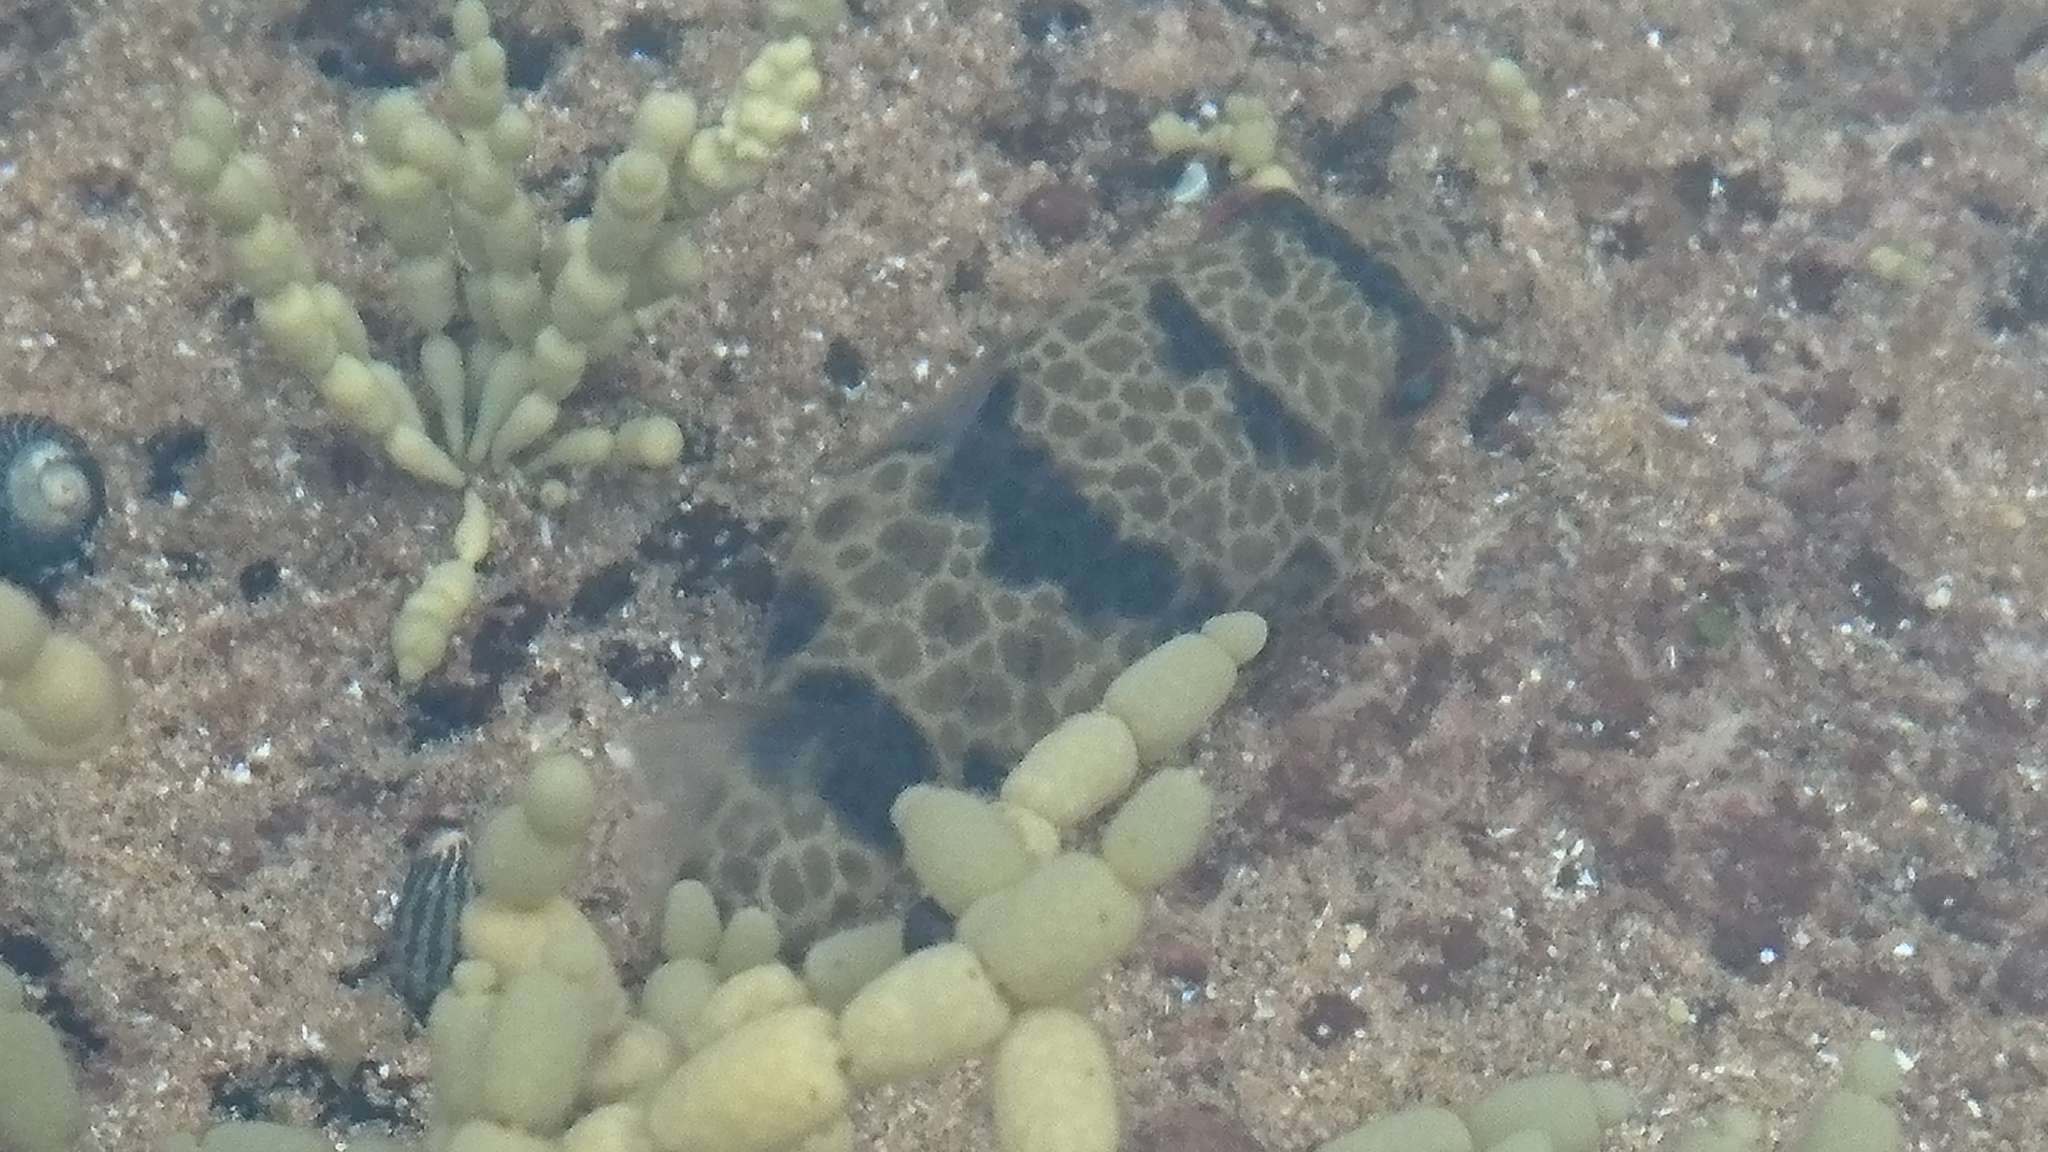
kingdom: Animalia
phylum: Chordata
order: Tetraodontiformes
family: Tetraodontidae
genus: Tetractenos
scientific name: Tetractenos glaber
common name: Smooth toadfish
